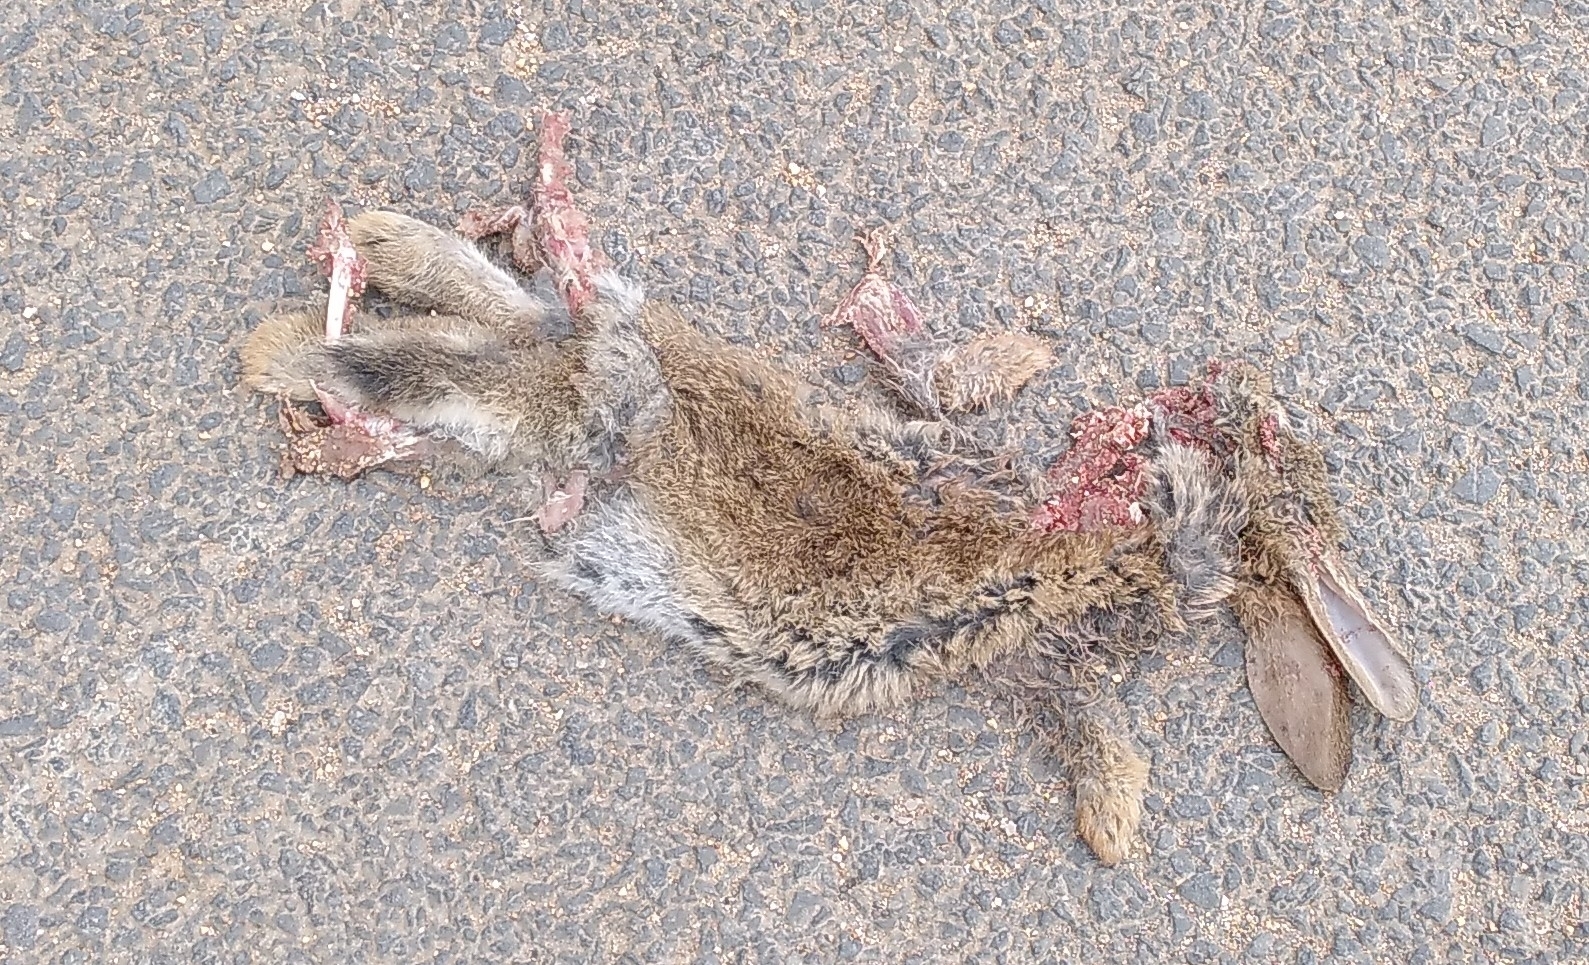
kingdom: Animalia
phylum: Chordata
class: Mammalia
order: Lagomorpha
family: Leporidae
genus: Oryctolagus
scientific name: Oryctolagus cuniculus
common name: European rabbit
